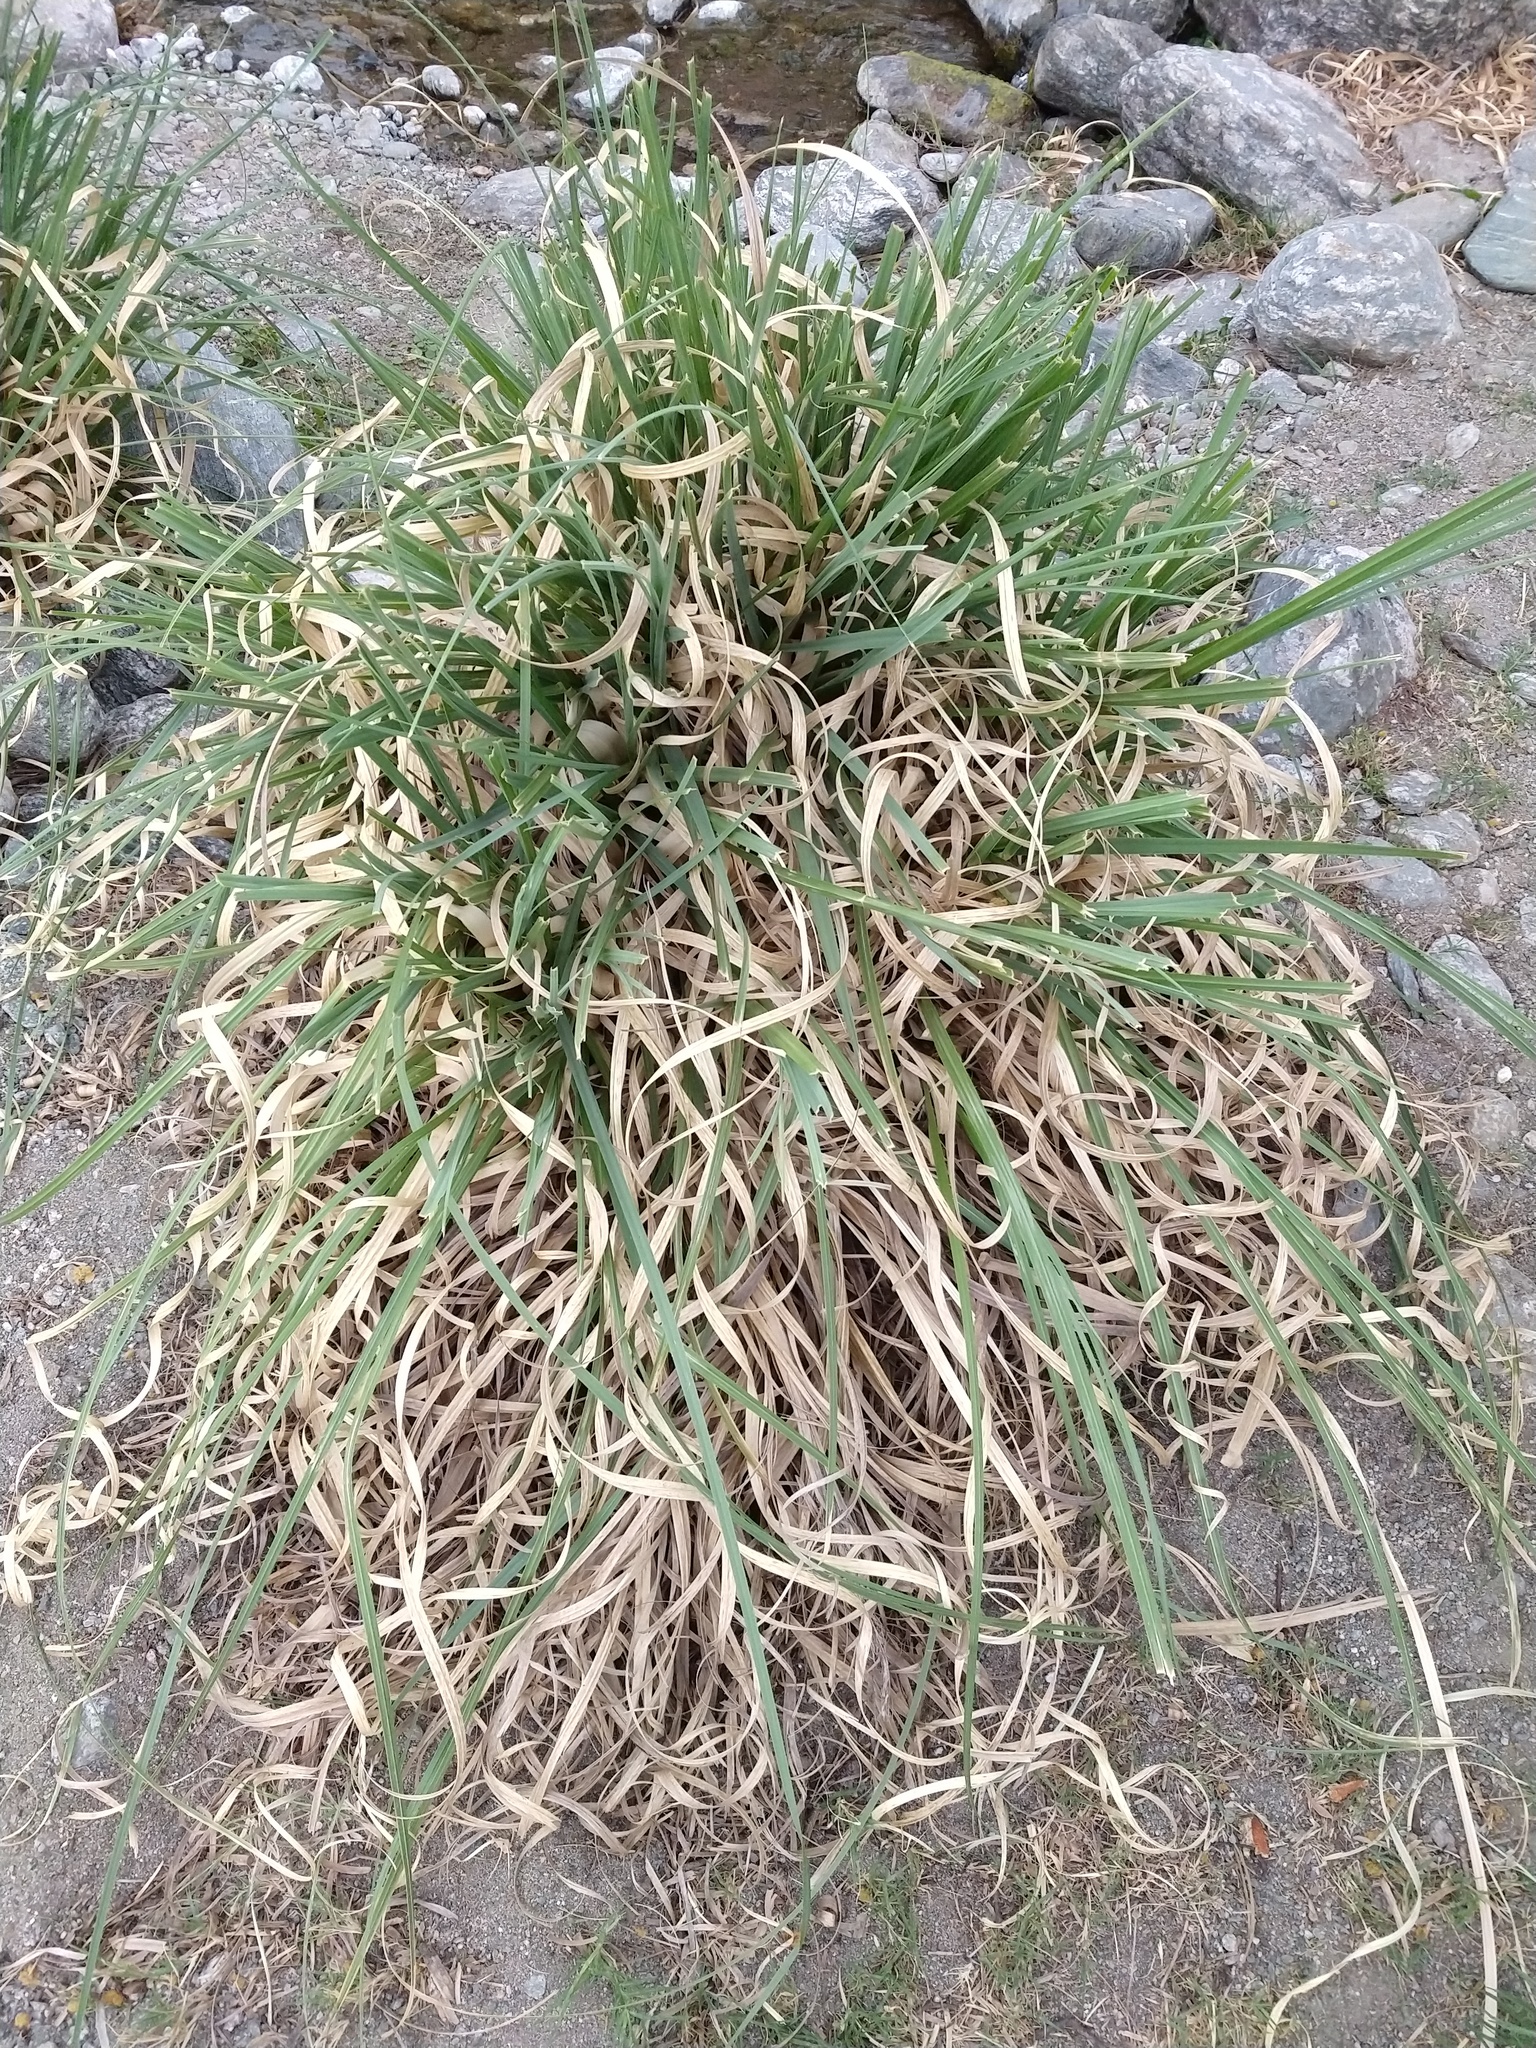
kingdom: Plantae
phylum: Tracheophyta
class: Liliopsida
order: Poales
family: Poaceae
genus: Cortaderia
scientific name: Cortaderia selloana
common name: Uruguayan pampas grass
